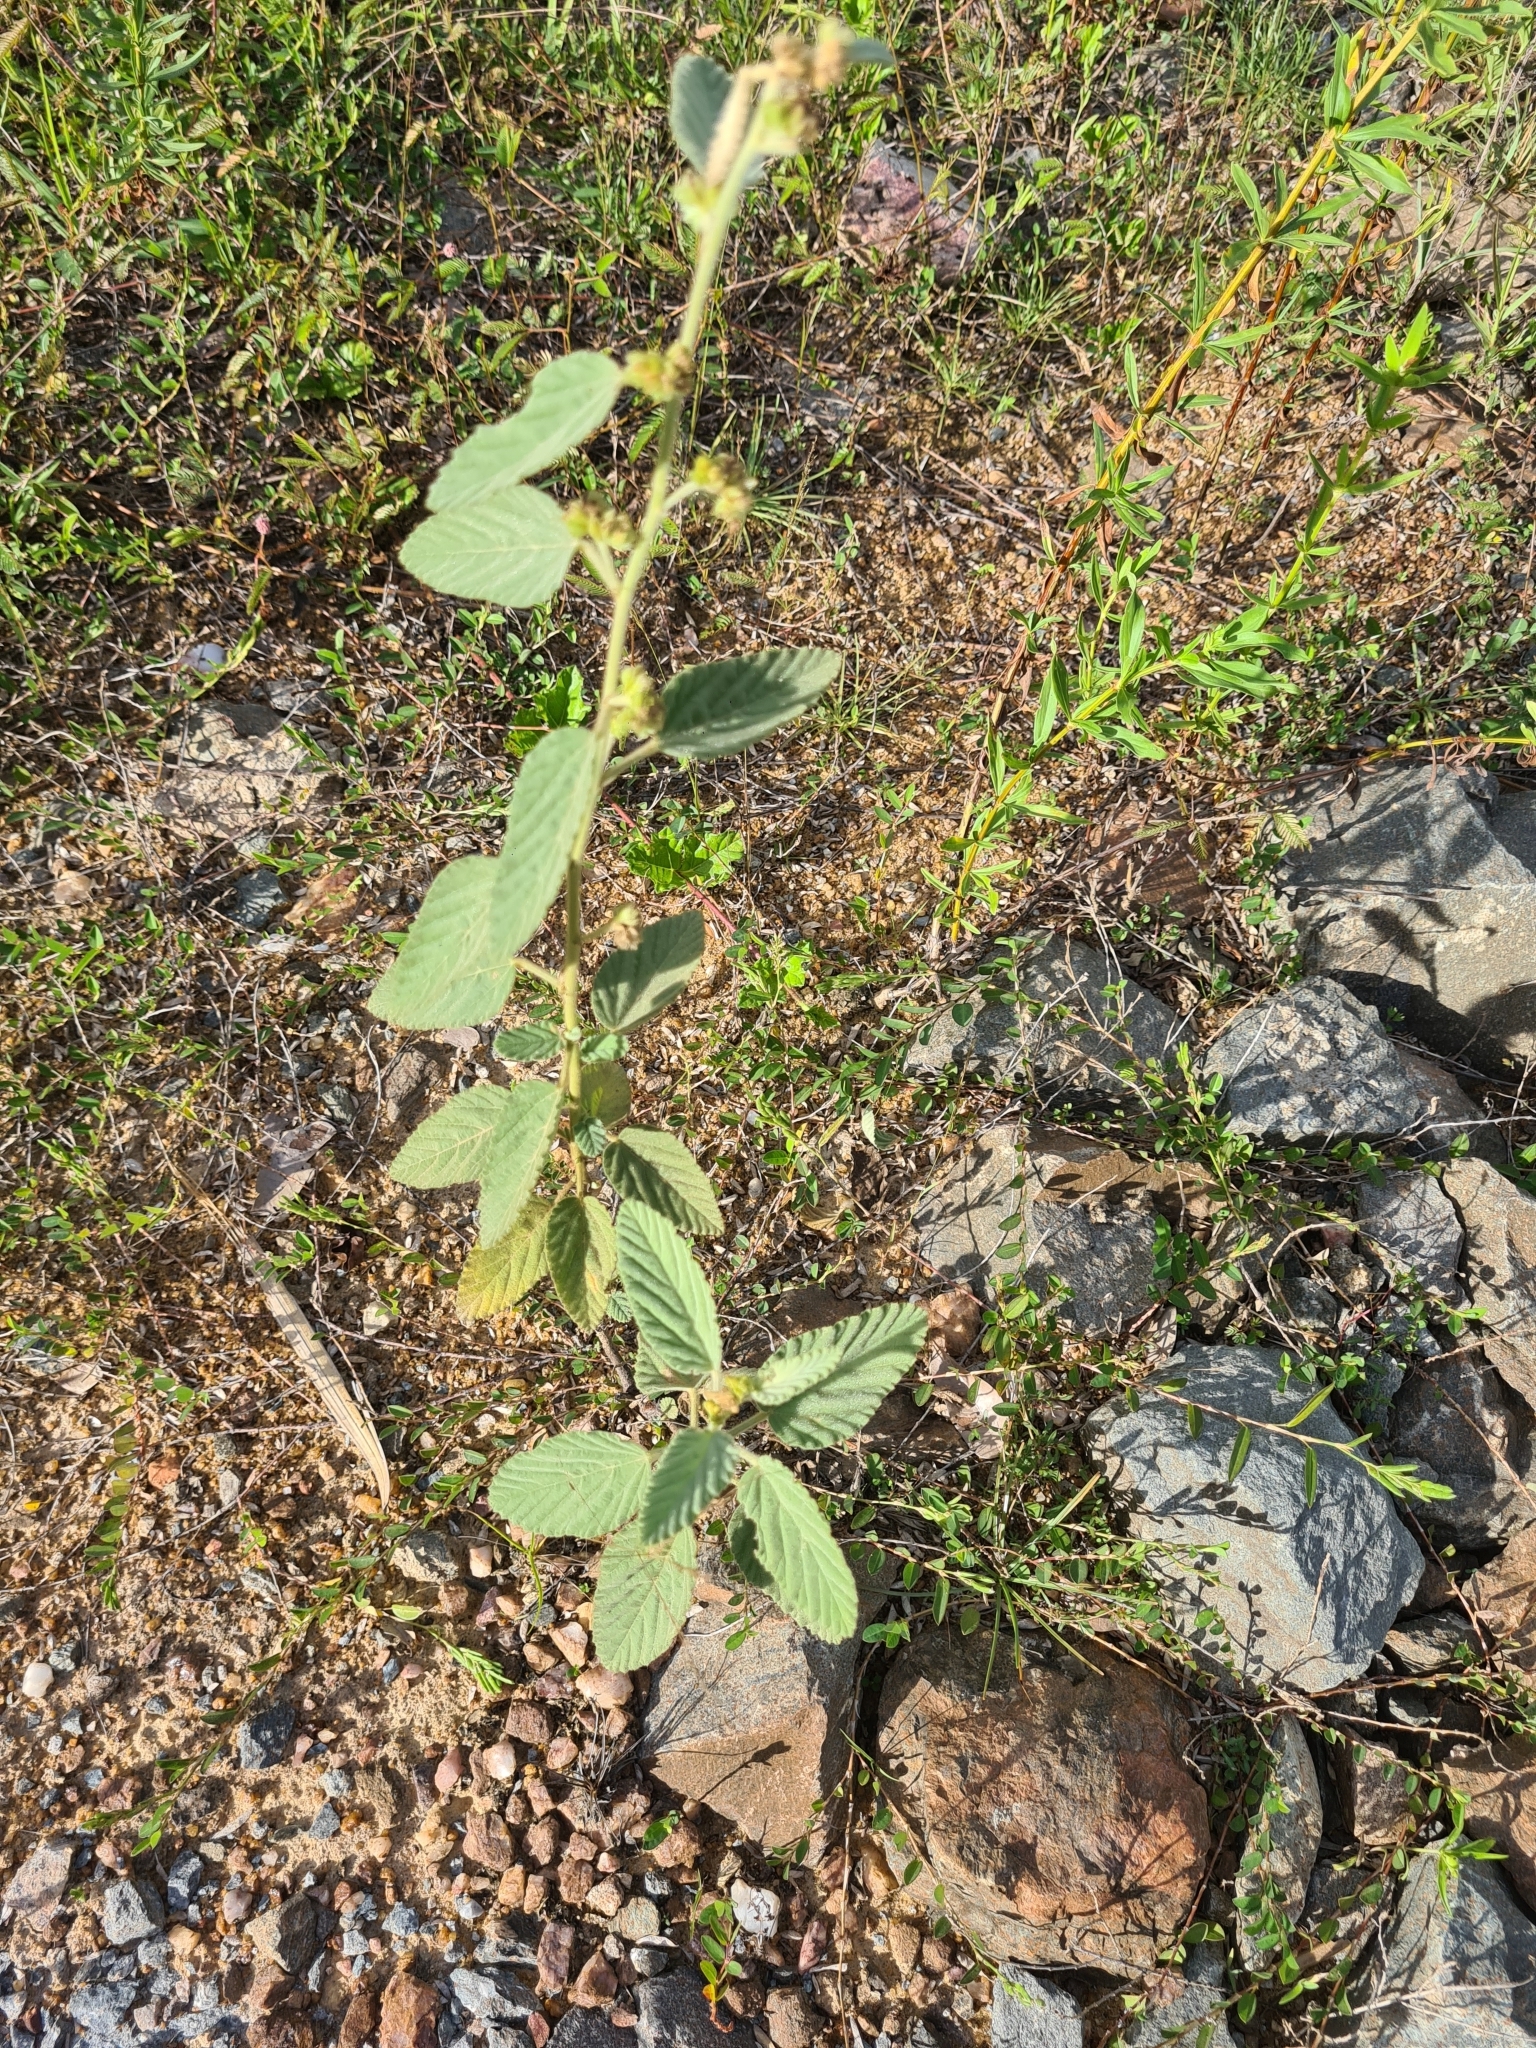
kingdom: Plantae
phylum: Tracheophyta
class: Magnoliopsida
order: Malvales
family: Malvaceae
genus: Waltheria
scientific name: Waltheria indica
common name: Leather-coat
